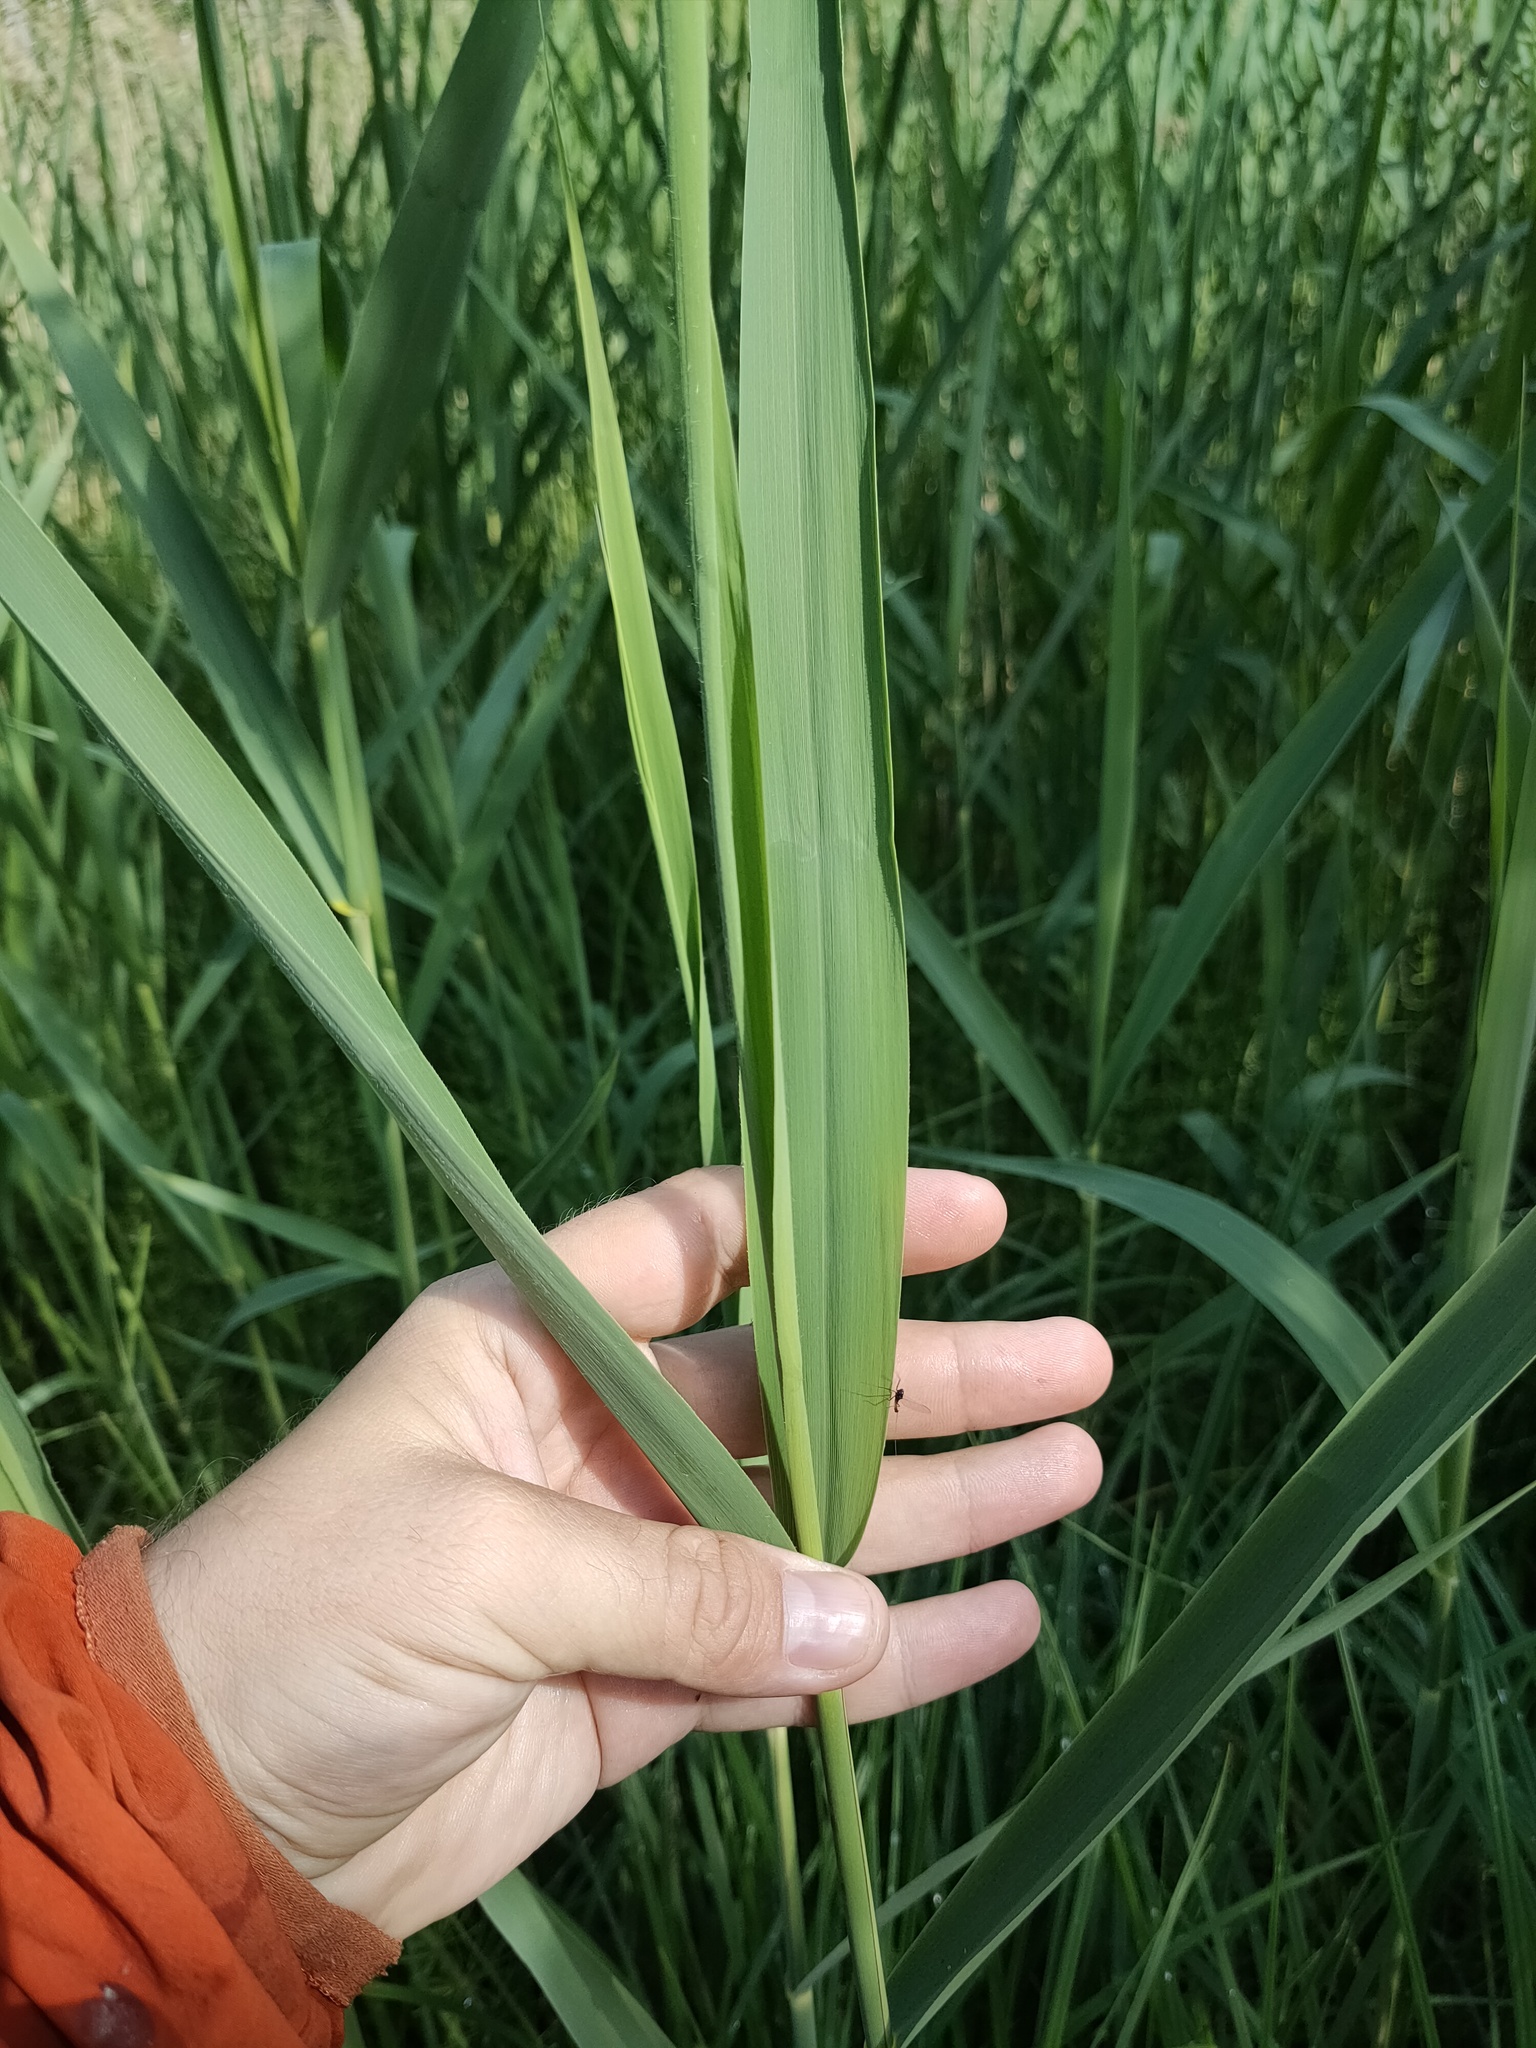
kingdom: Plantae
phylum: Tracheophyta
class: Liliopsida
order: Poales
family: Poaceae
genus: Phragmites
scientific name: Phragmites australis
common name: Common reed
